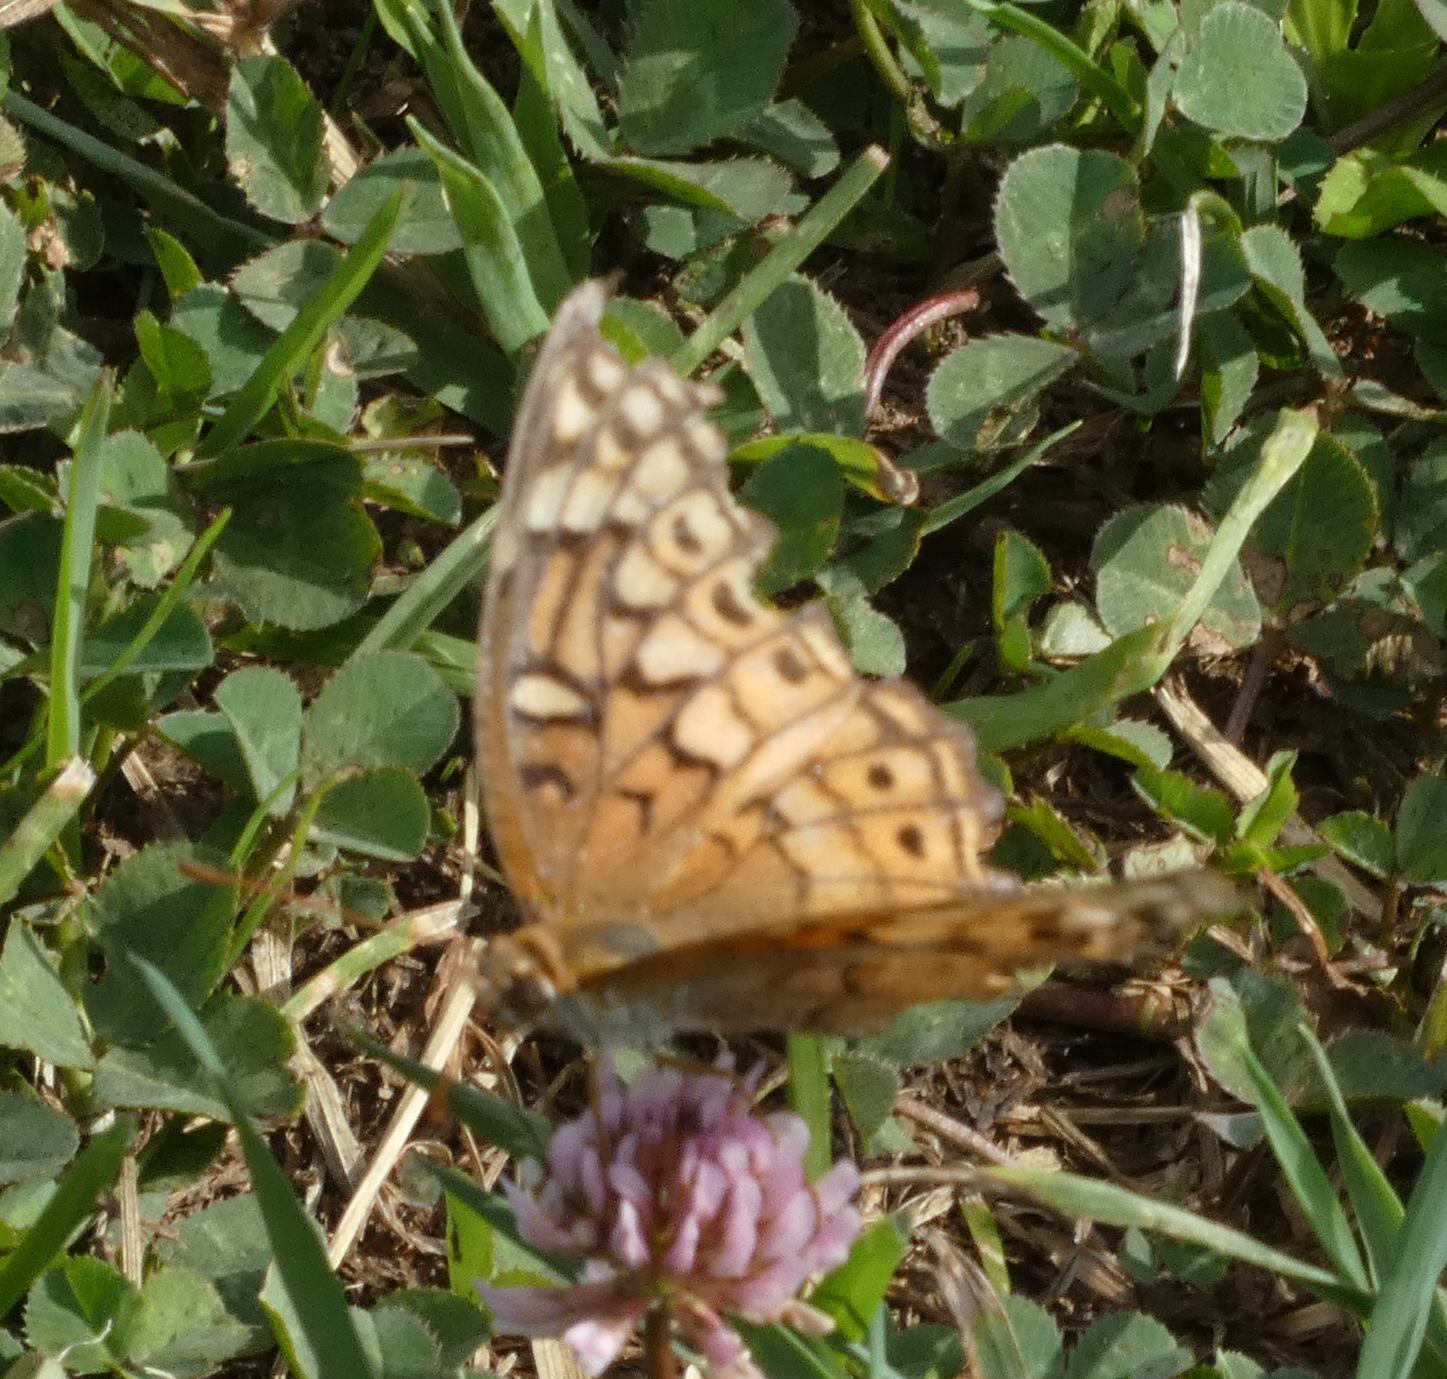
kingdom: Animalia
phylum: Arthropoda
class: Insecta
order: Lepidoptera
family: Nymphalidae
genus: Euptoieta
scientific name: Euptoieta claudia
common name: Variegated fritillary
